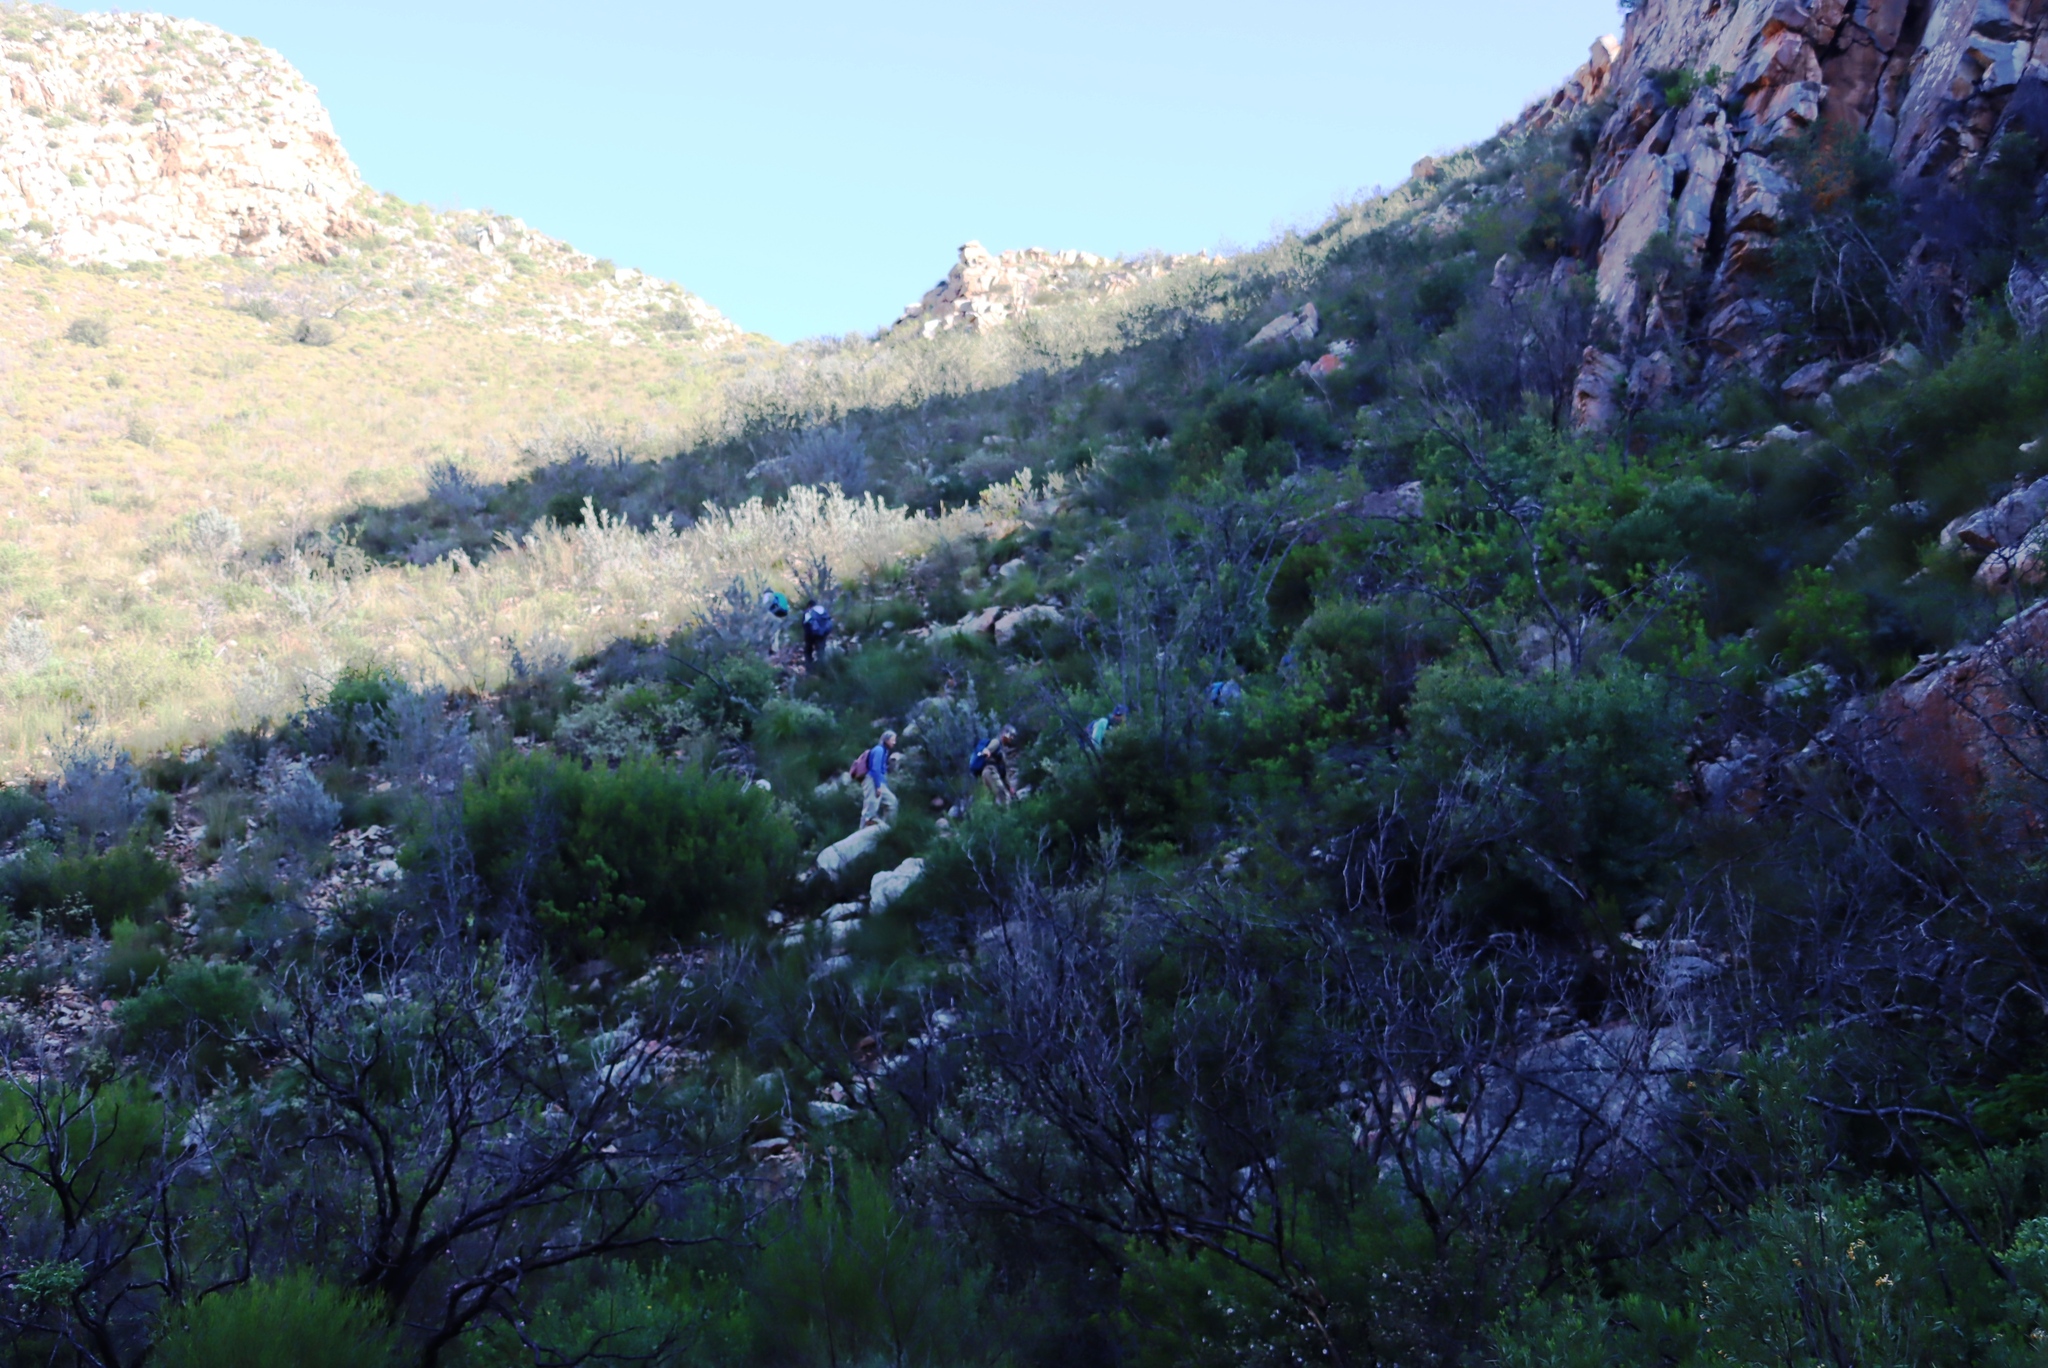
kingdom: Plantae
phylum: Tracheophyta
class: Magnoliopsida
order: Sapindales
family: Sapindaceae
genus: Dodonaea
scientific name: Dodonaea viscosa
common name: Hopbush
